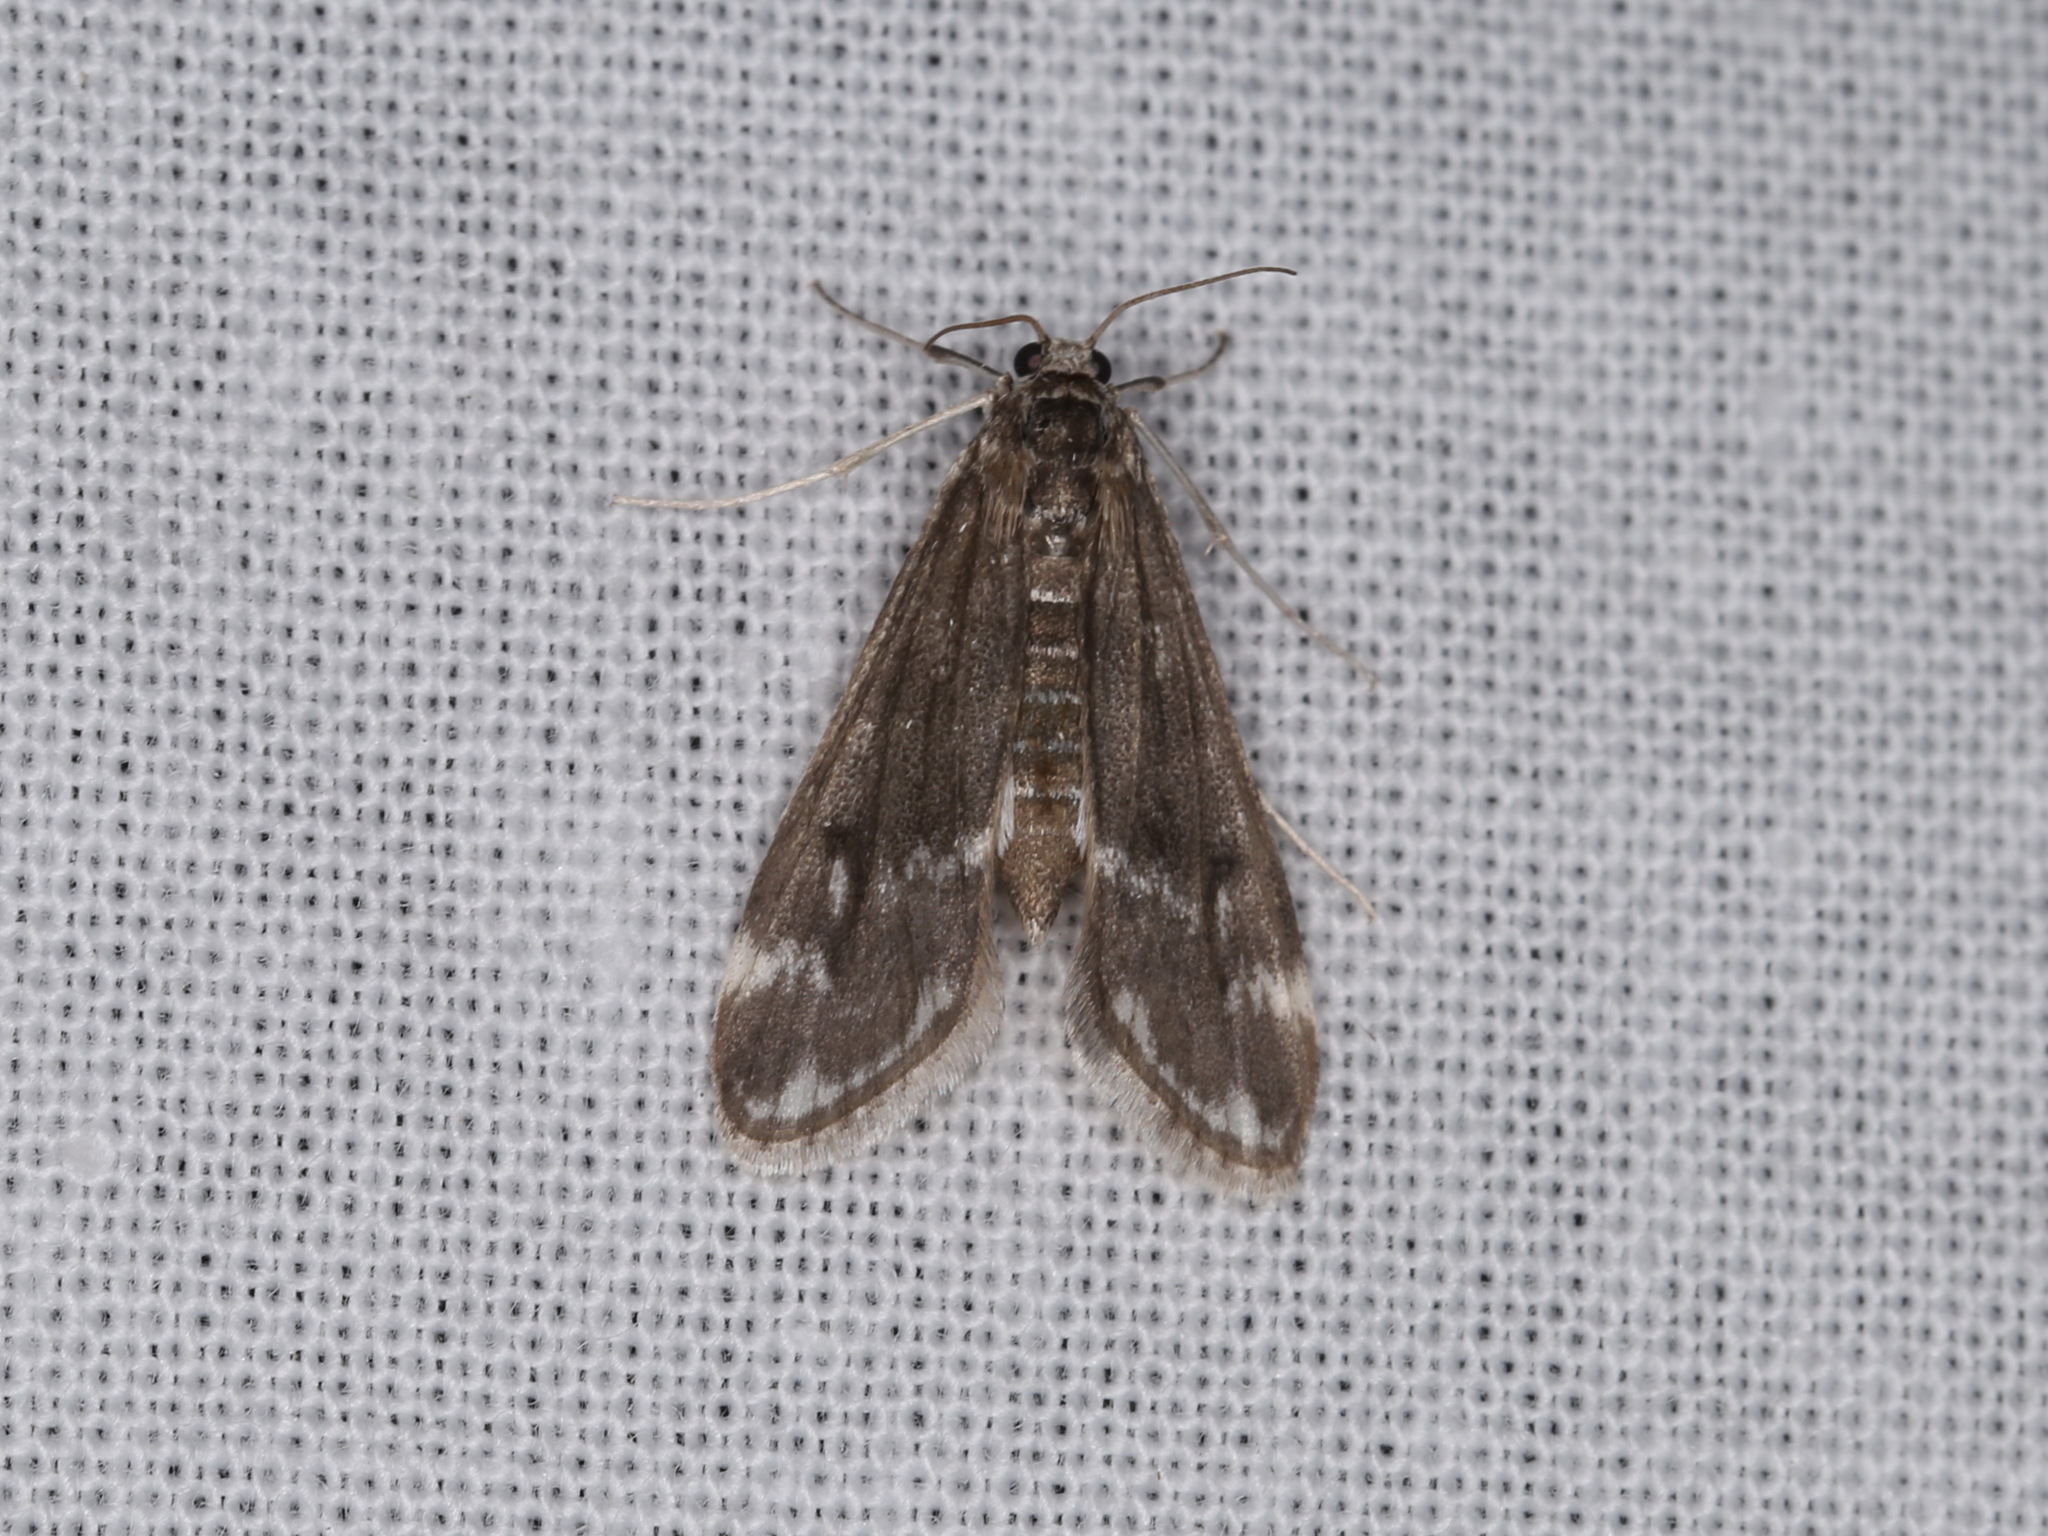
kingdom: Animalia
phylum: Arthropoda
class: Insecta
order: Lepidoptera
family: Crambidae
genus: Hygraula
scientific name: Hygraula nitens
